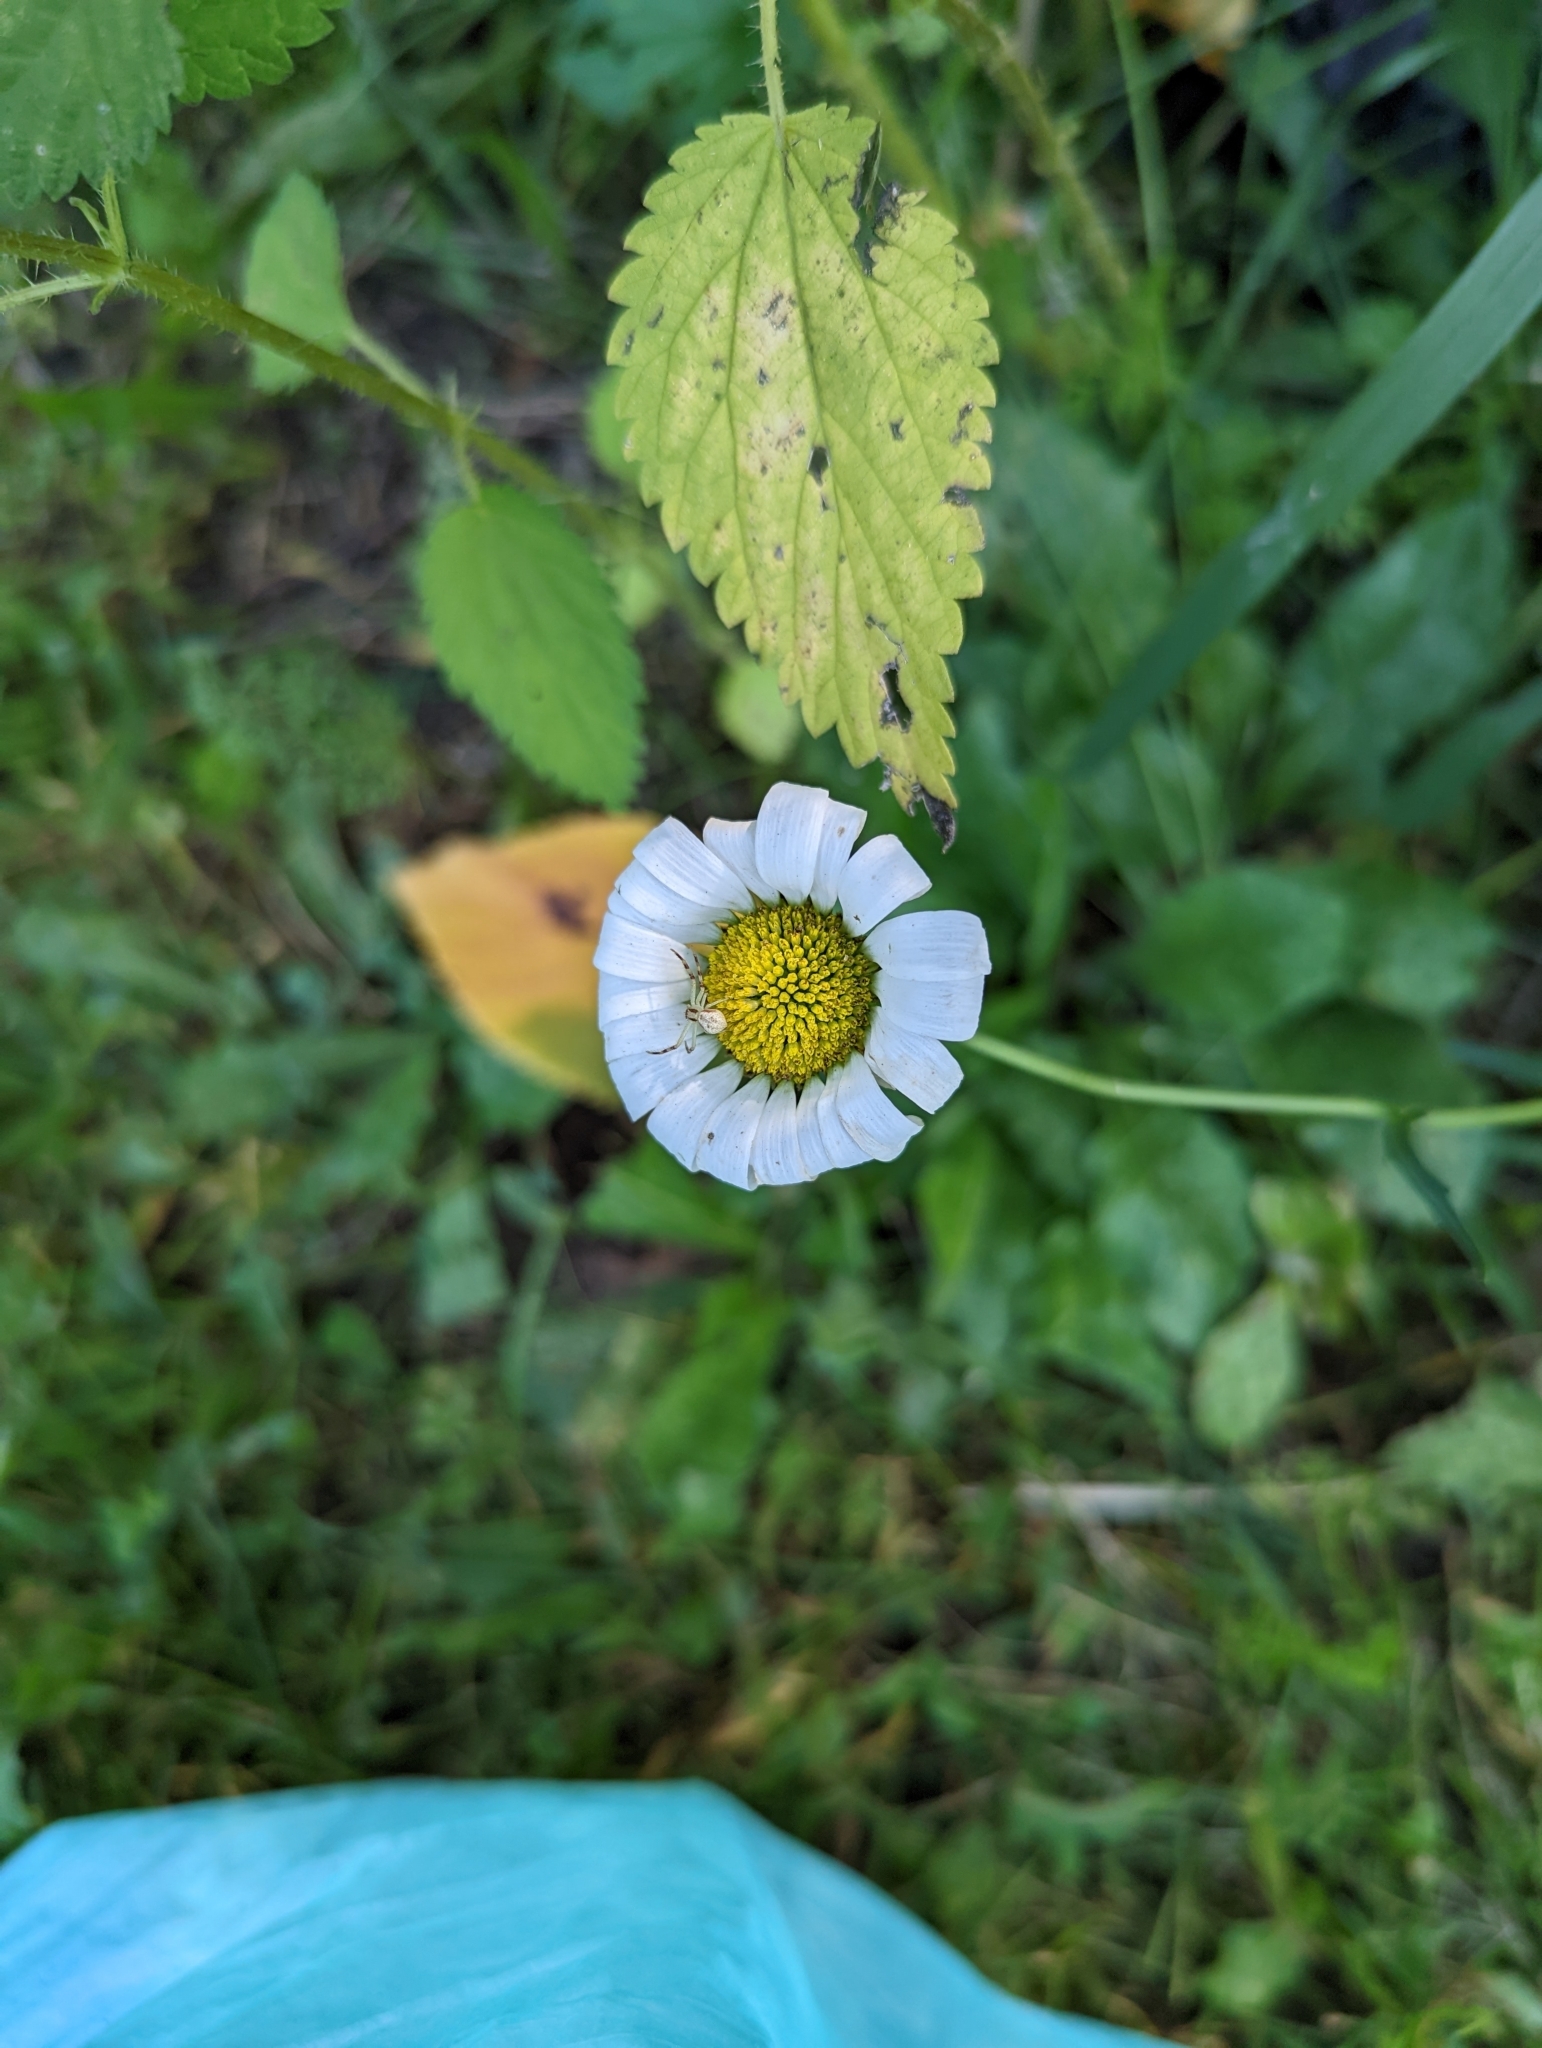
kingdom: Plantae
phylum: Tracheophyta
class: Magnoliopsida
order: Asterales
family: Asteraceae
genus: Leucanthemum
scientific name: Leucanthemum vulgare
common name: Oxeye daisy
